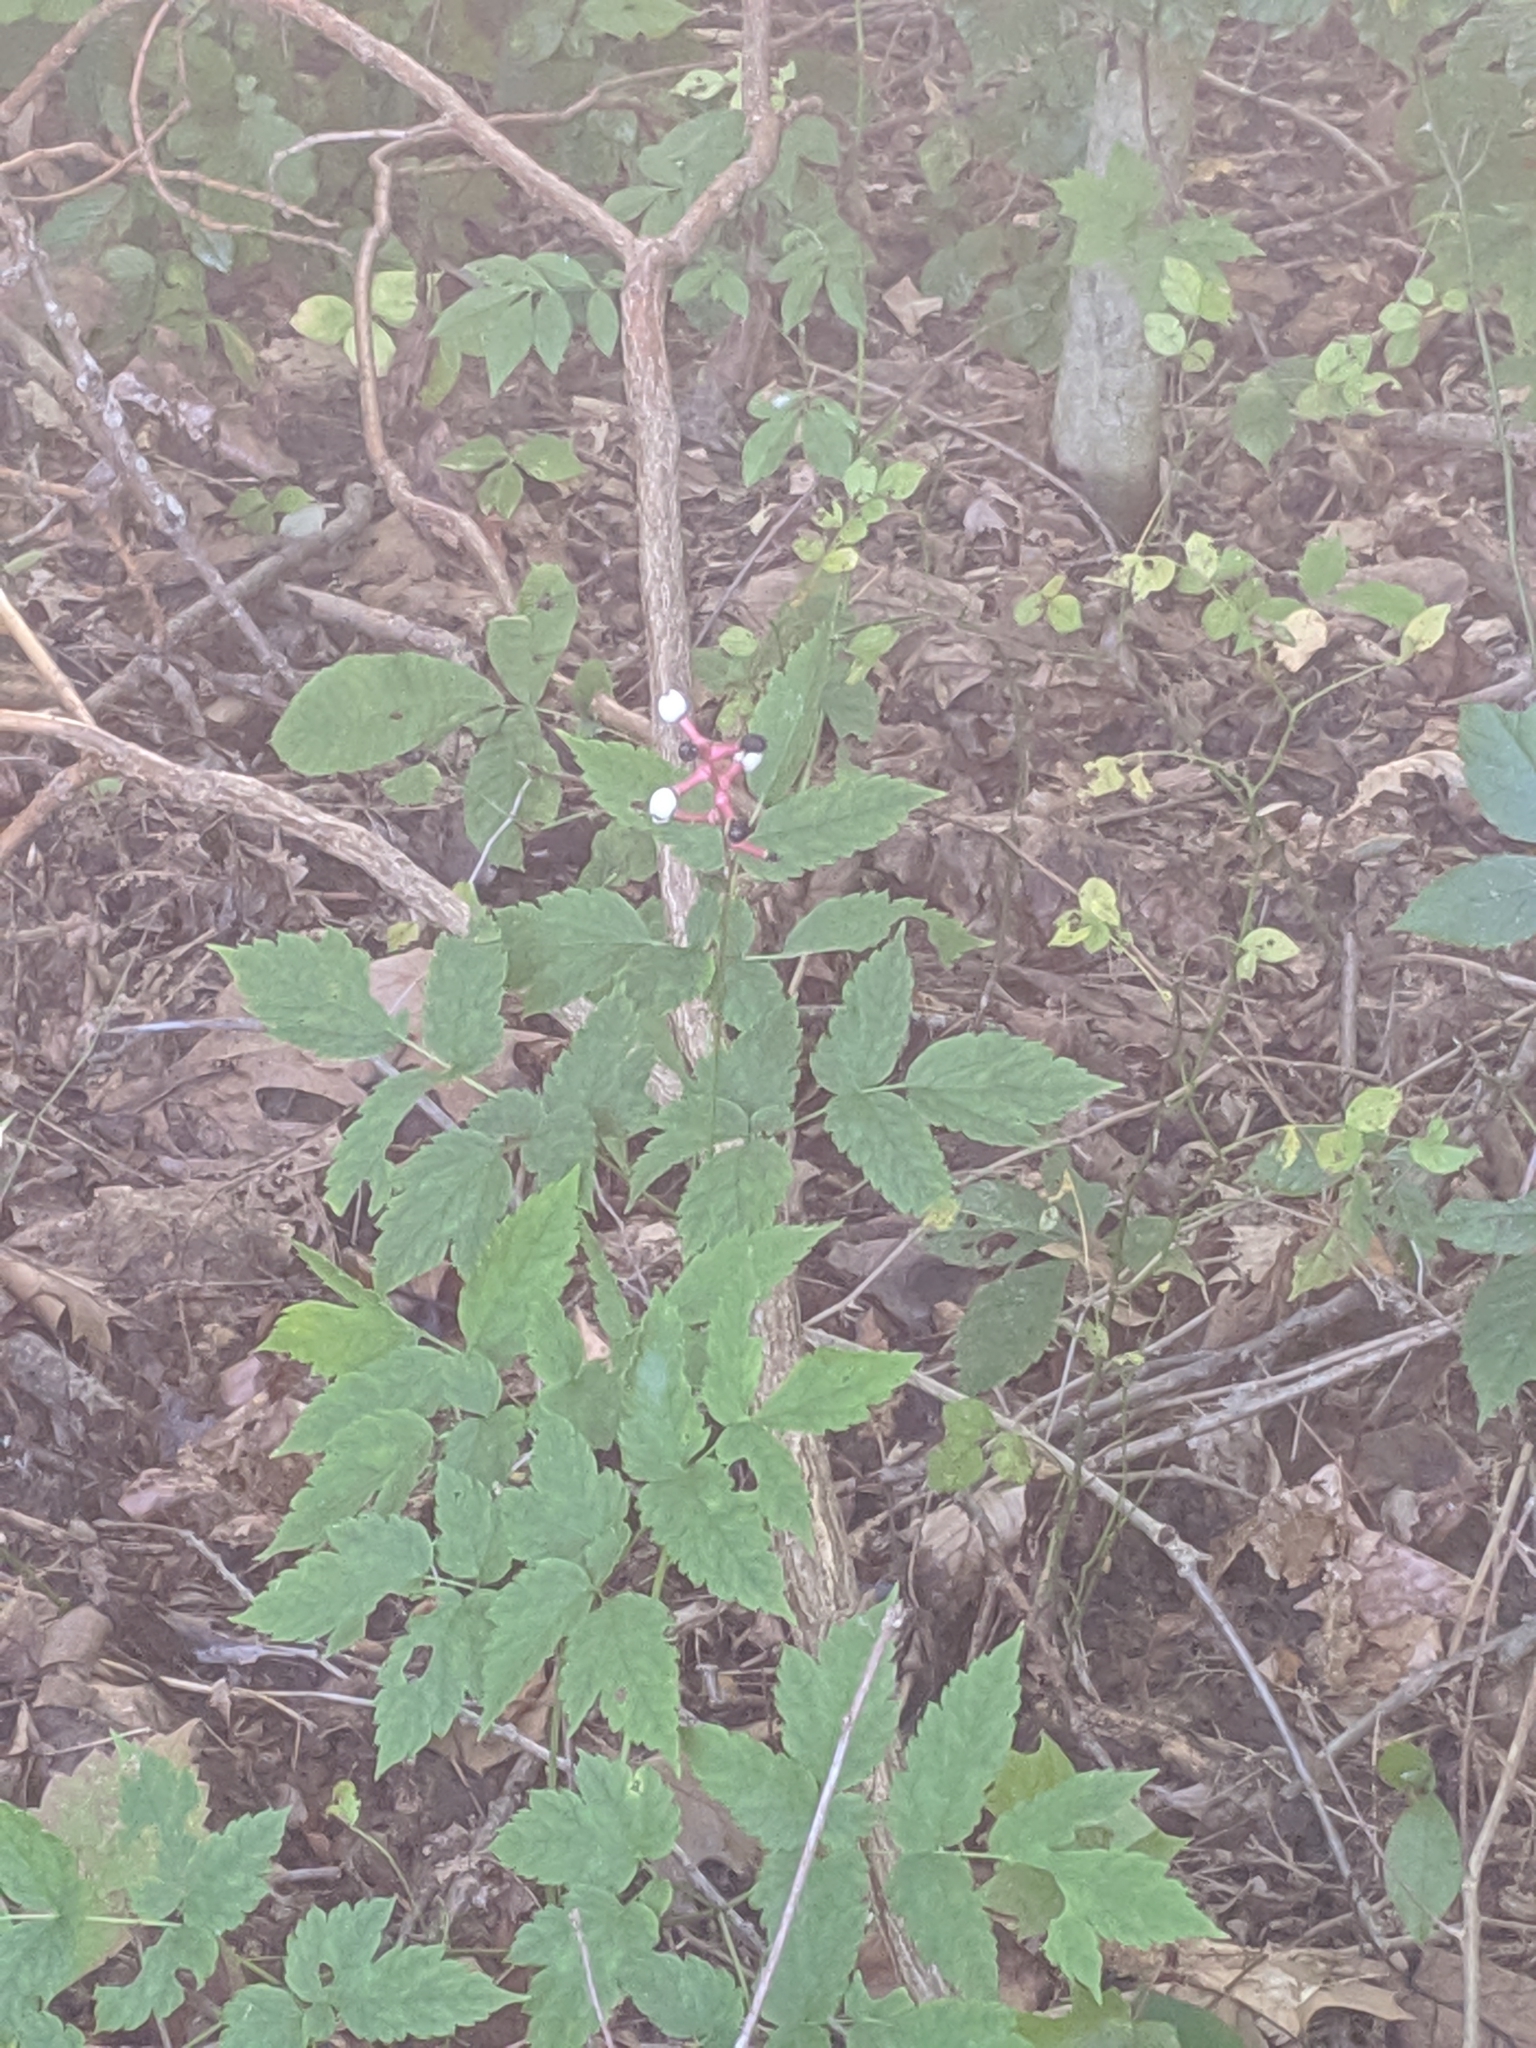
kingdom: Plantae
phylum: Tracheophyta
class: Magnoliopsida
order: Ranunculales
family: Ranunculaceae
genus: Actaea
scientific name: Actaea pachypoda
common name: Doll's-eyes
